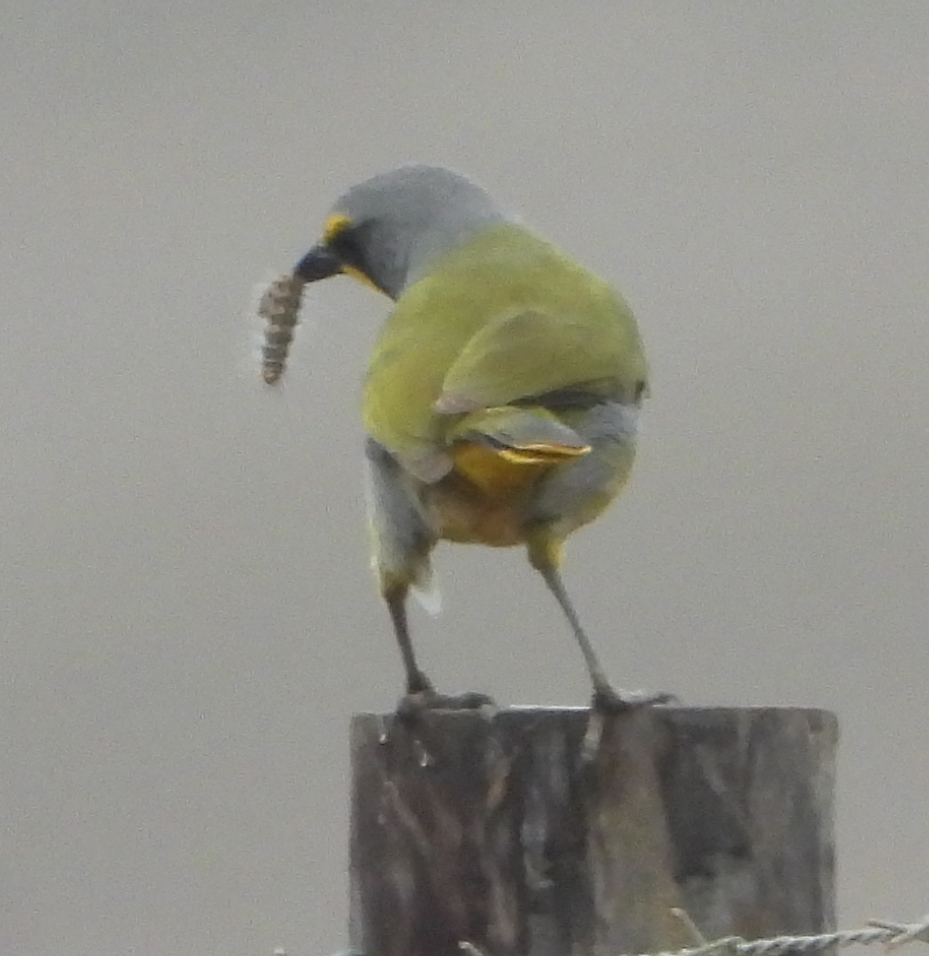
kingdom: Animalia
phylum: Chordata
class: Aves
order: Passeriformes
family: Malaconotidae
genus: Telophorus
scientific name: Telophorus zeylonus
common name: Bokmakierie
